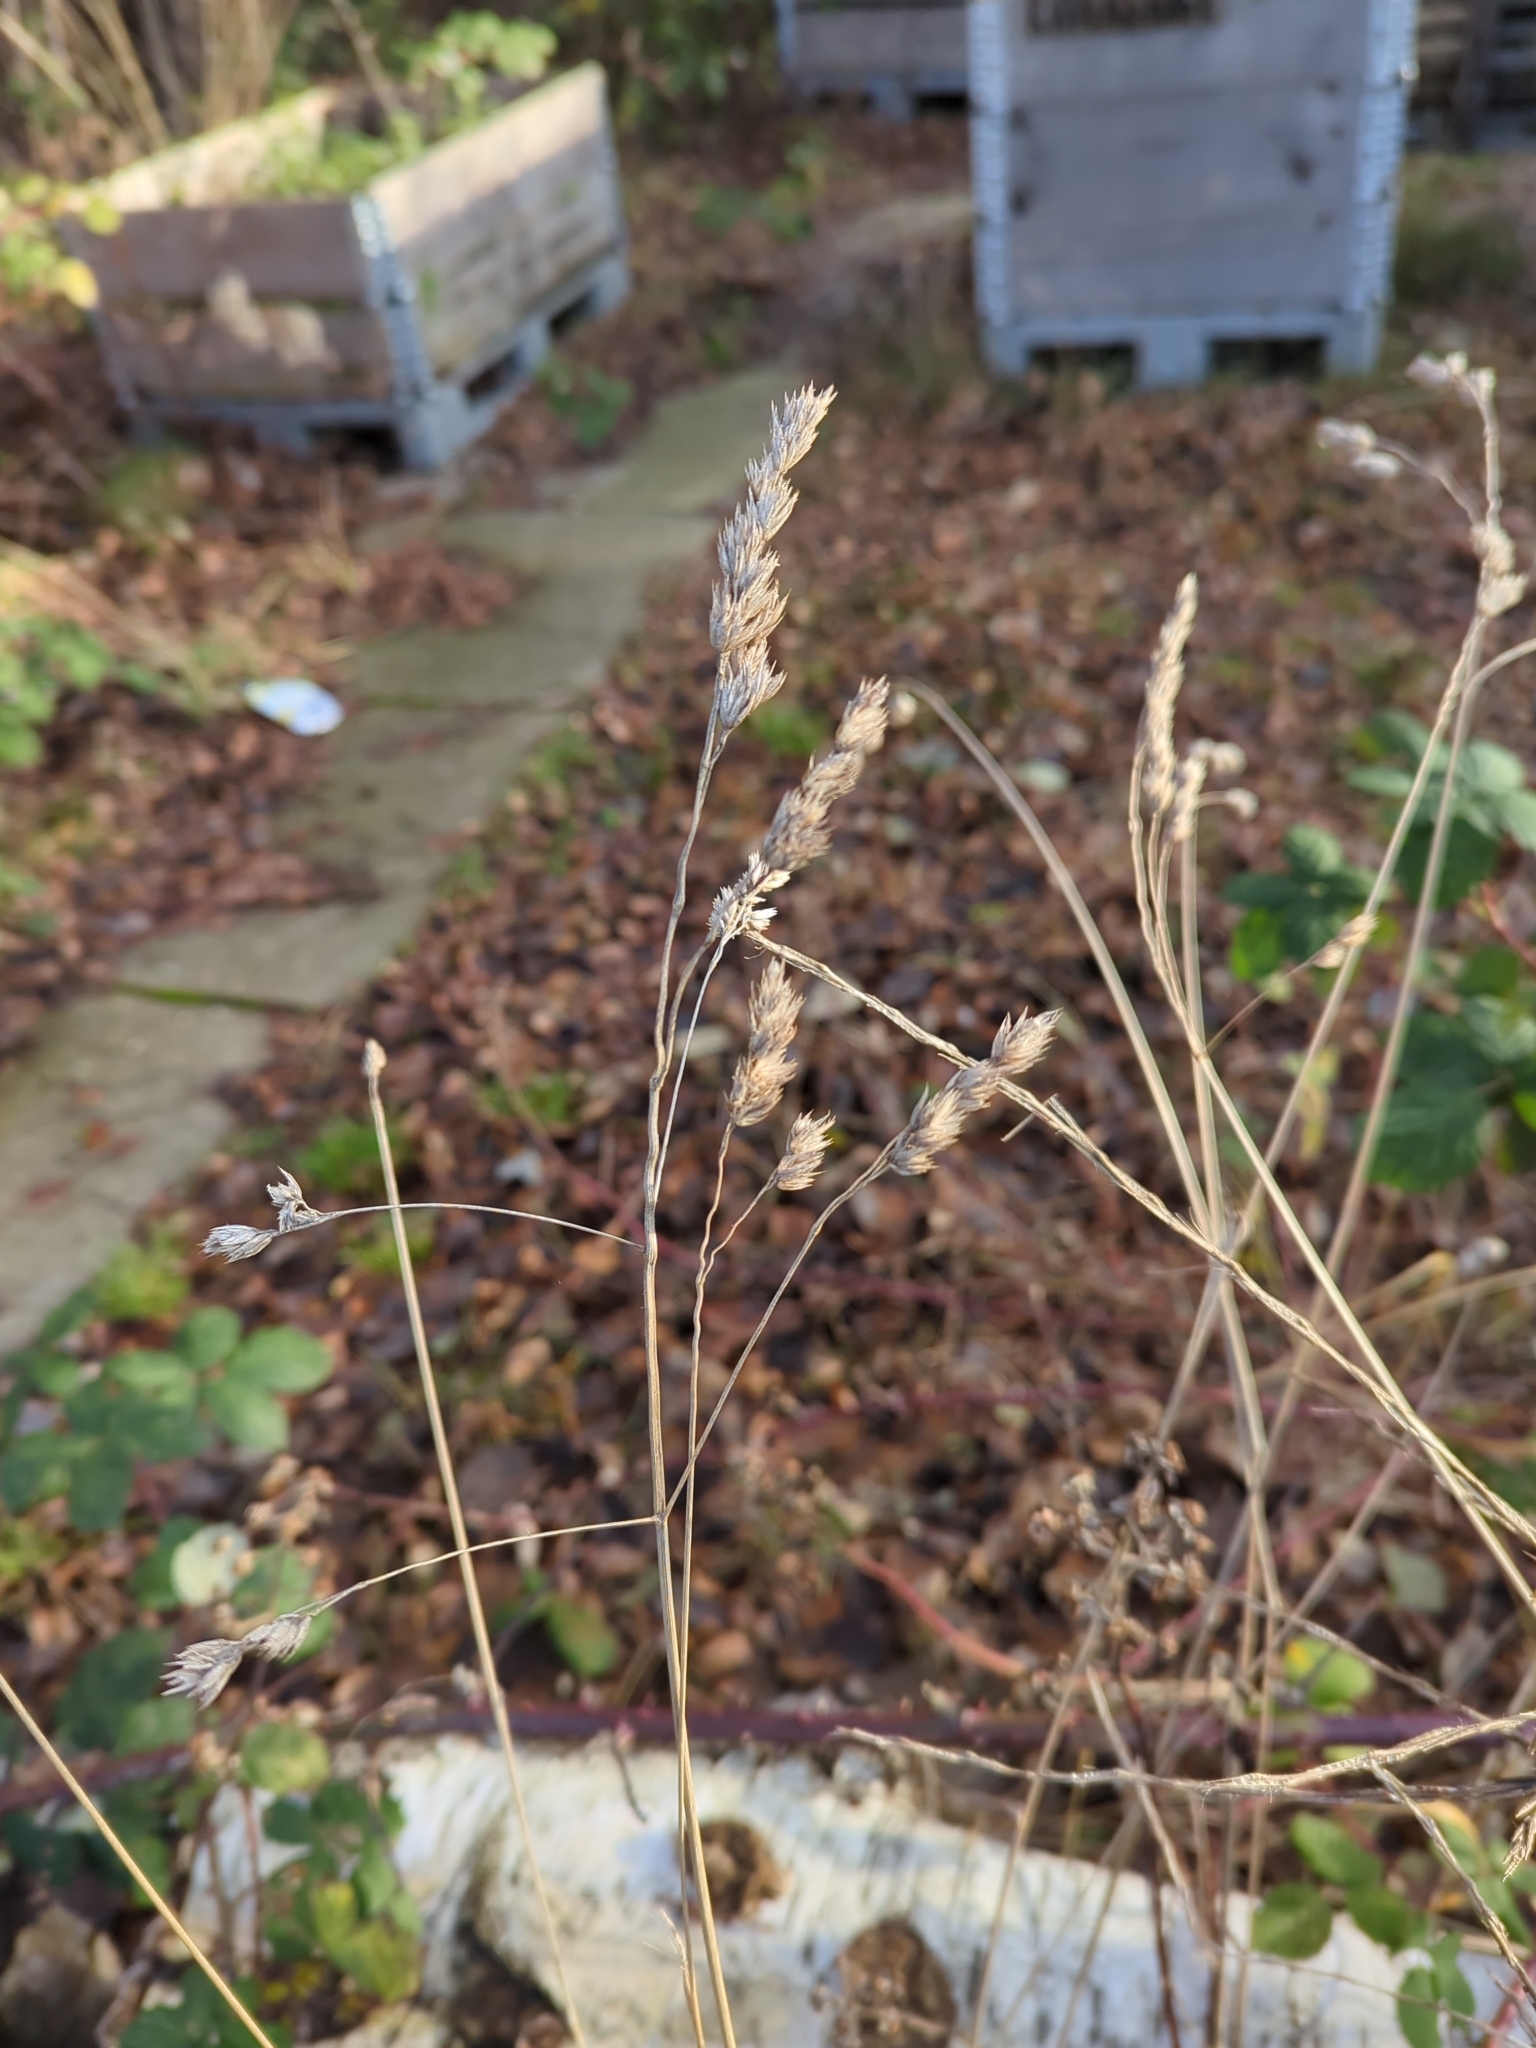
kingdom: Plantae
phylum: Tracheophyta
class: Liliopsida
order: Poales
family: Poaceae
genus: Dactylis
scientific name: Dactylis glomerata
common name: Orchardgrass
